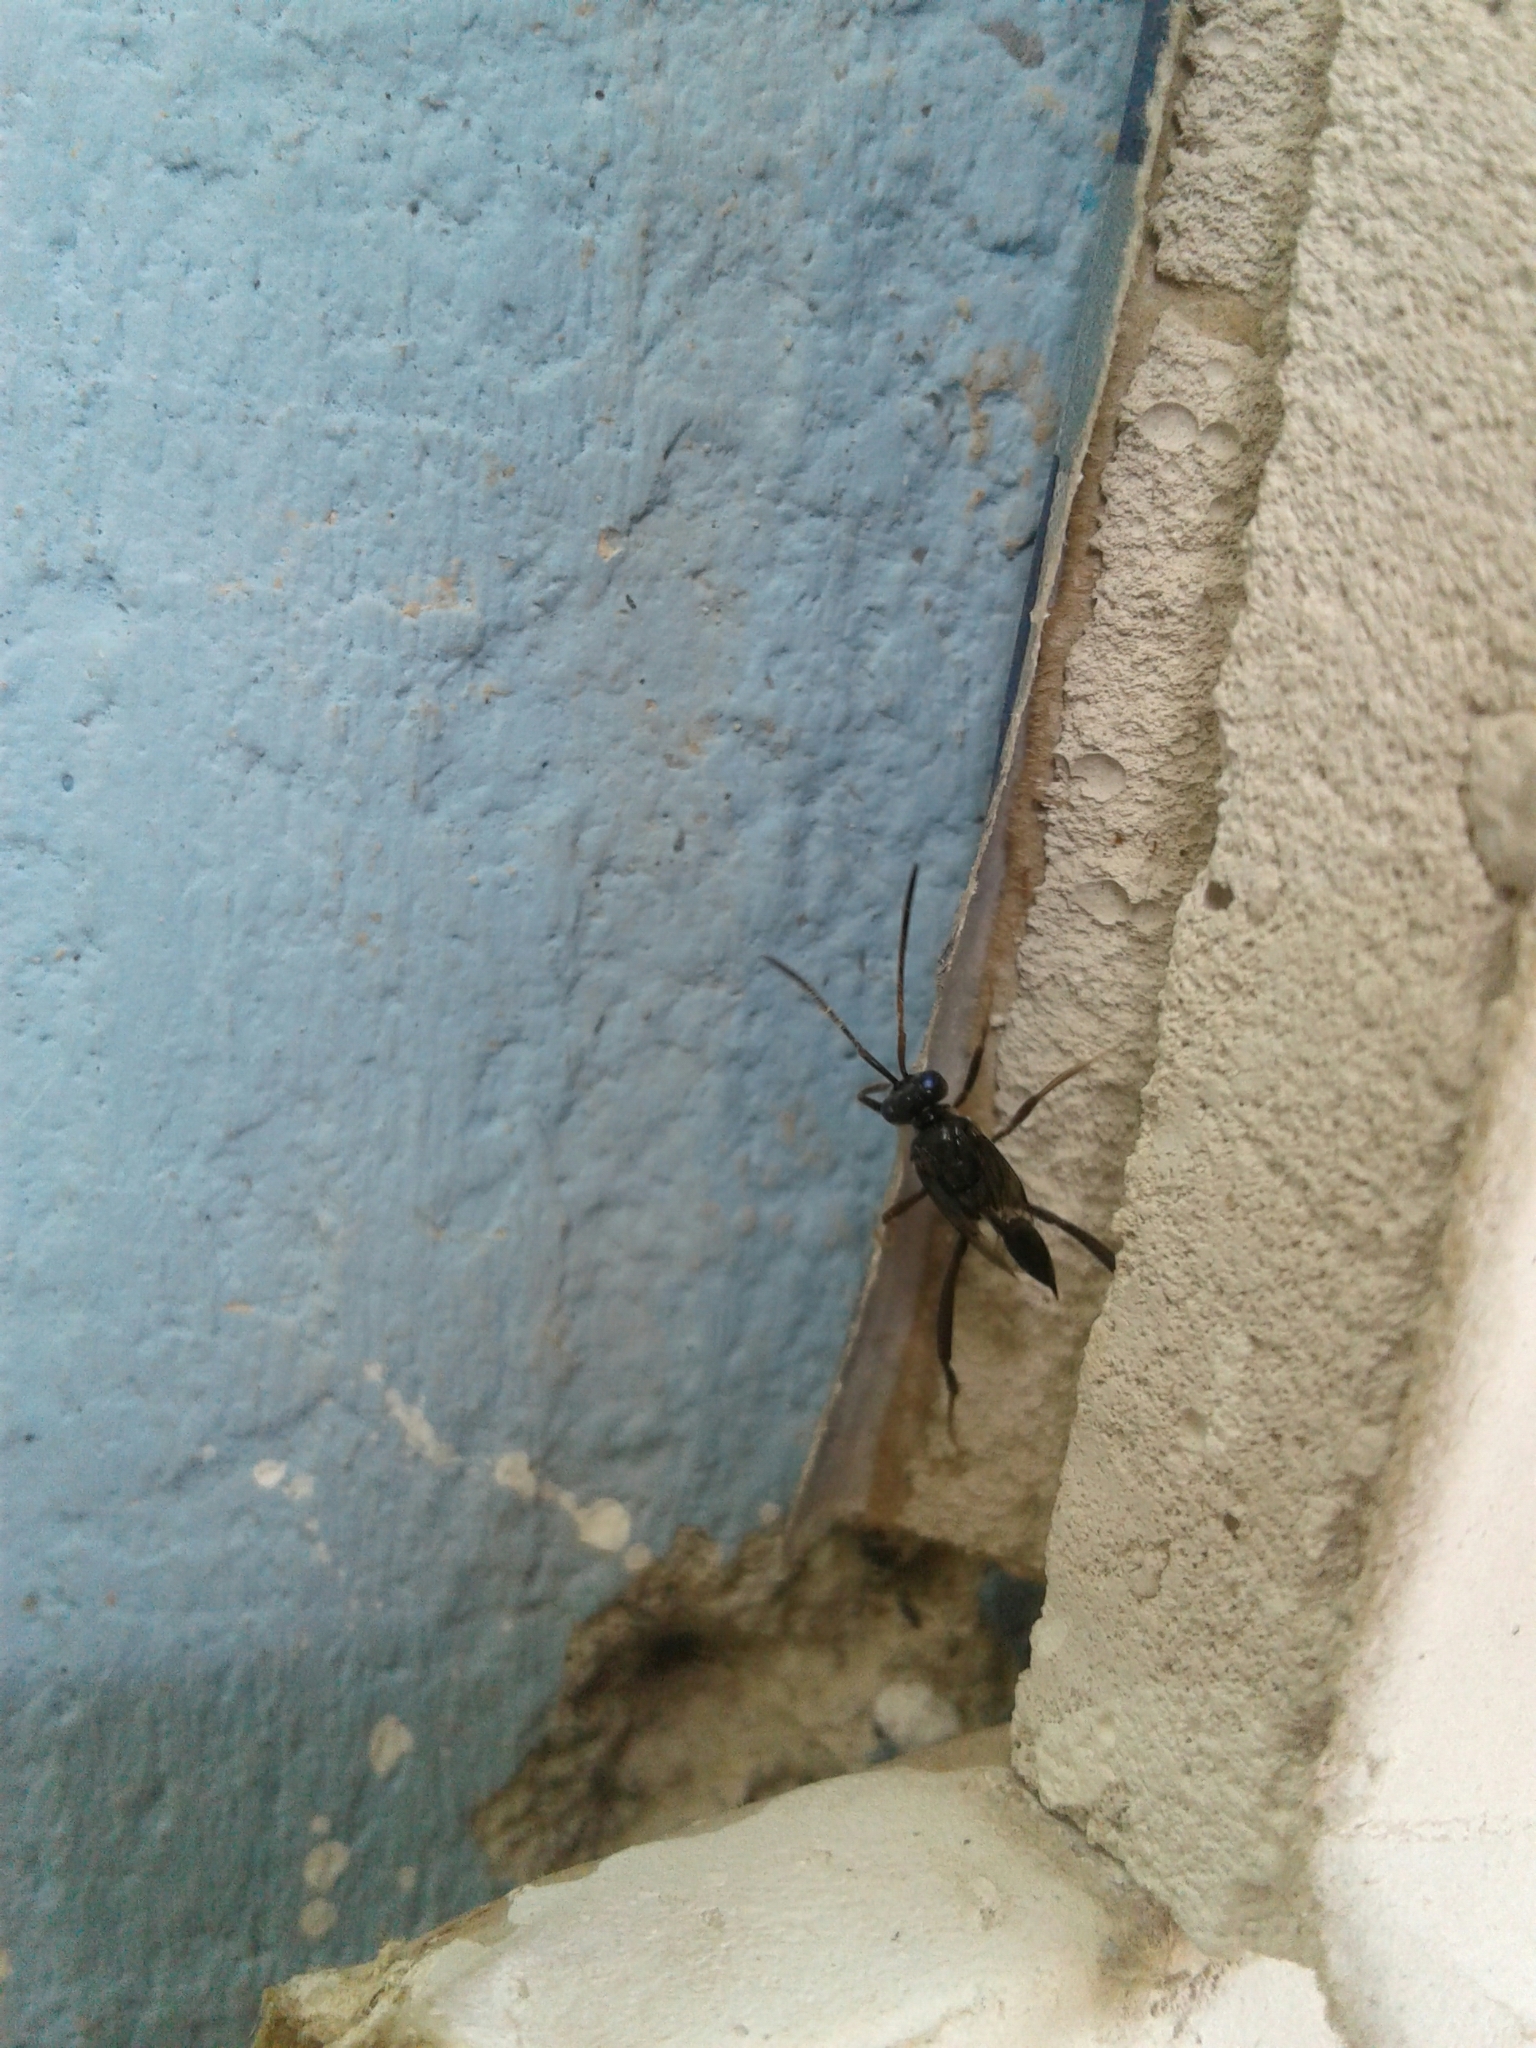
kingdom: Animalia
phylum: Arthropoda
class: Insecta
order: Hymenoptera
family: Evaniidae
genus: Evania
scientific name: Evania appendigaster
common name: Ensign wasp
